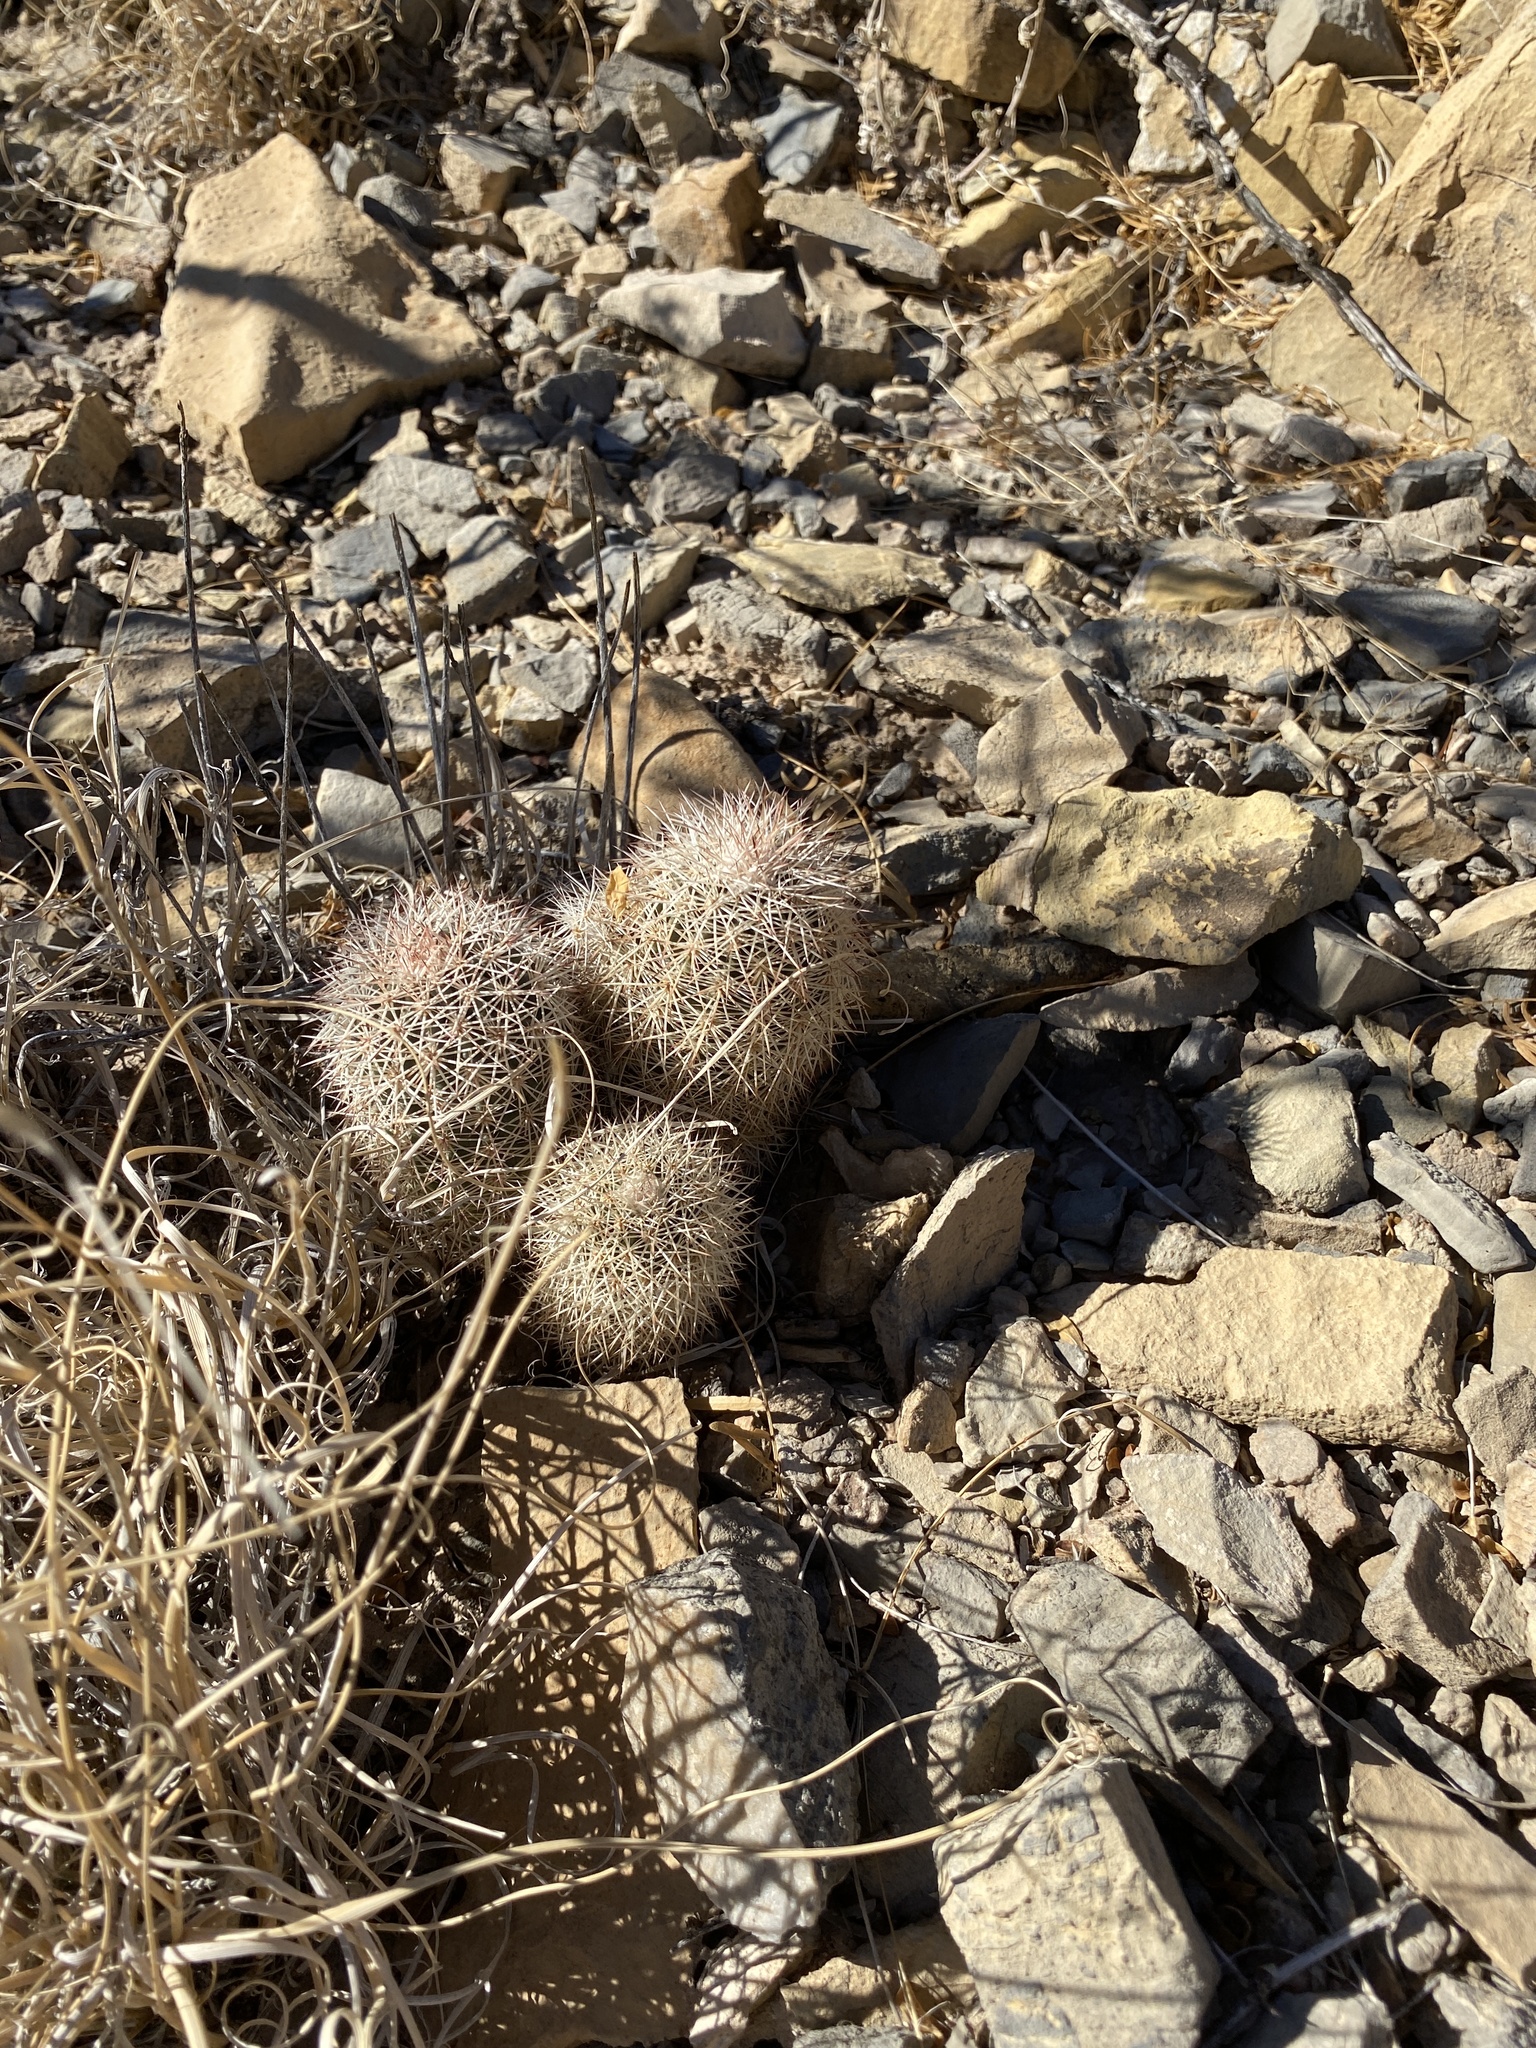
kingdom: Plantae
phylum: Tracheophyta
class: Magnoliopsida
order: Caryophyllales
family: Cactaceae
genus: Echinocereus
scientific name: Echinocereus dasyacanthus
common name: Spiny hedgehog cactus
